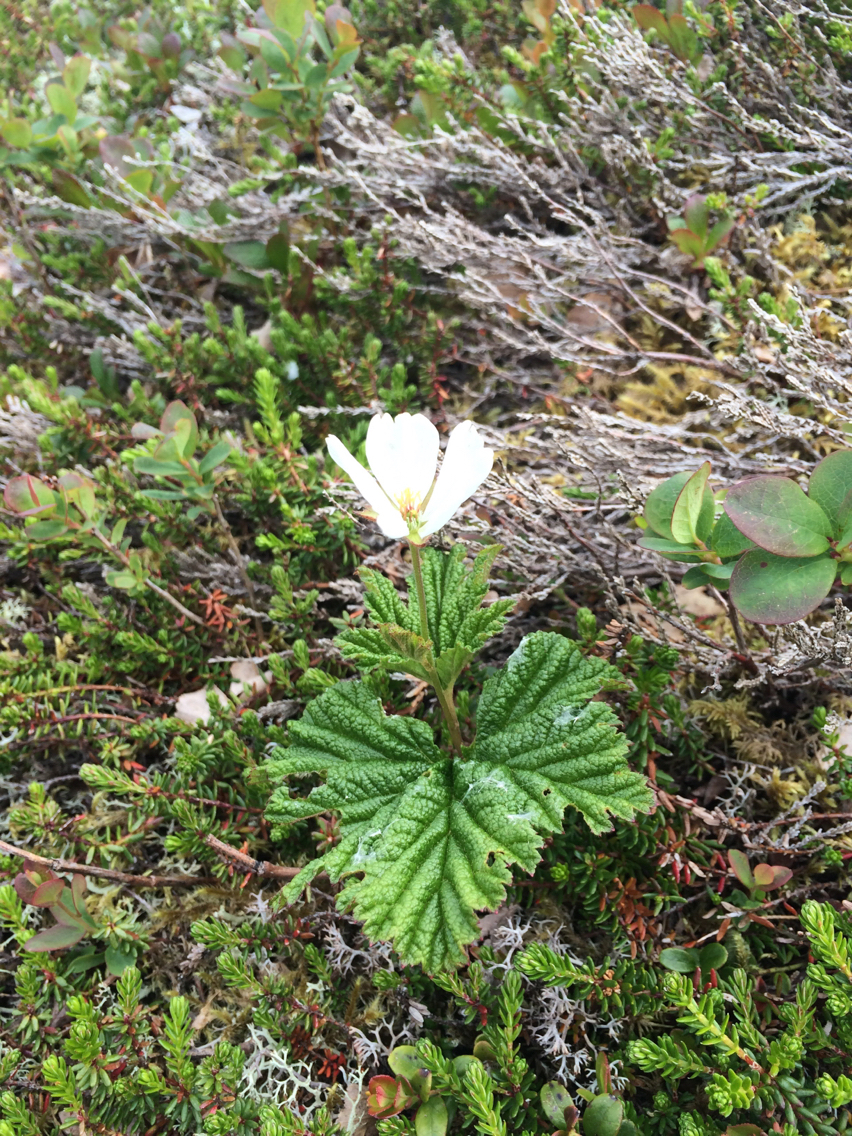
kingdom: Plantae
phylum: Tracheophyta
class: Magnoliopsida
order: Rosales
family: Rosaceae
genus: Rubus
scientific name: Rubus chamaemorus
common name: Cloudberry
